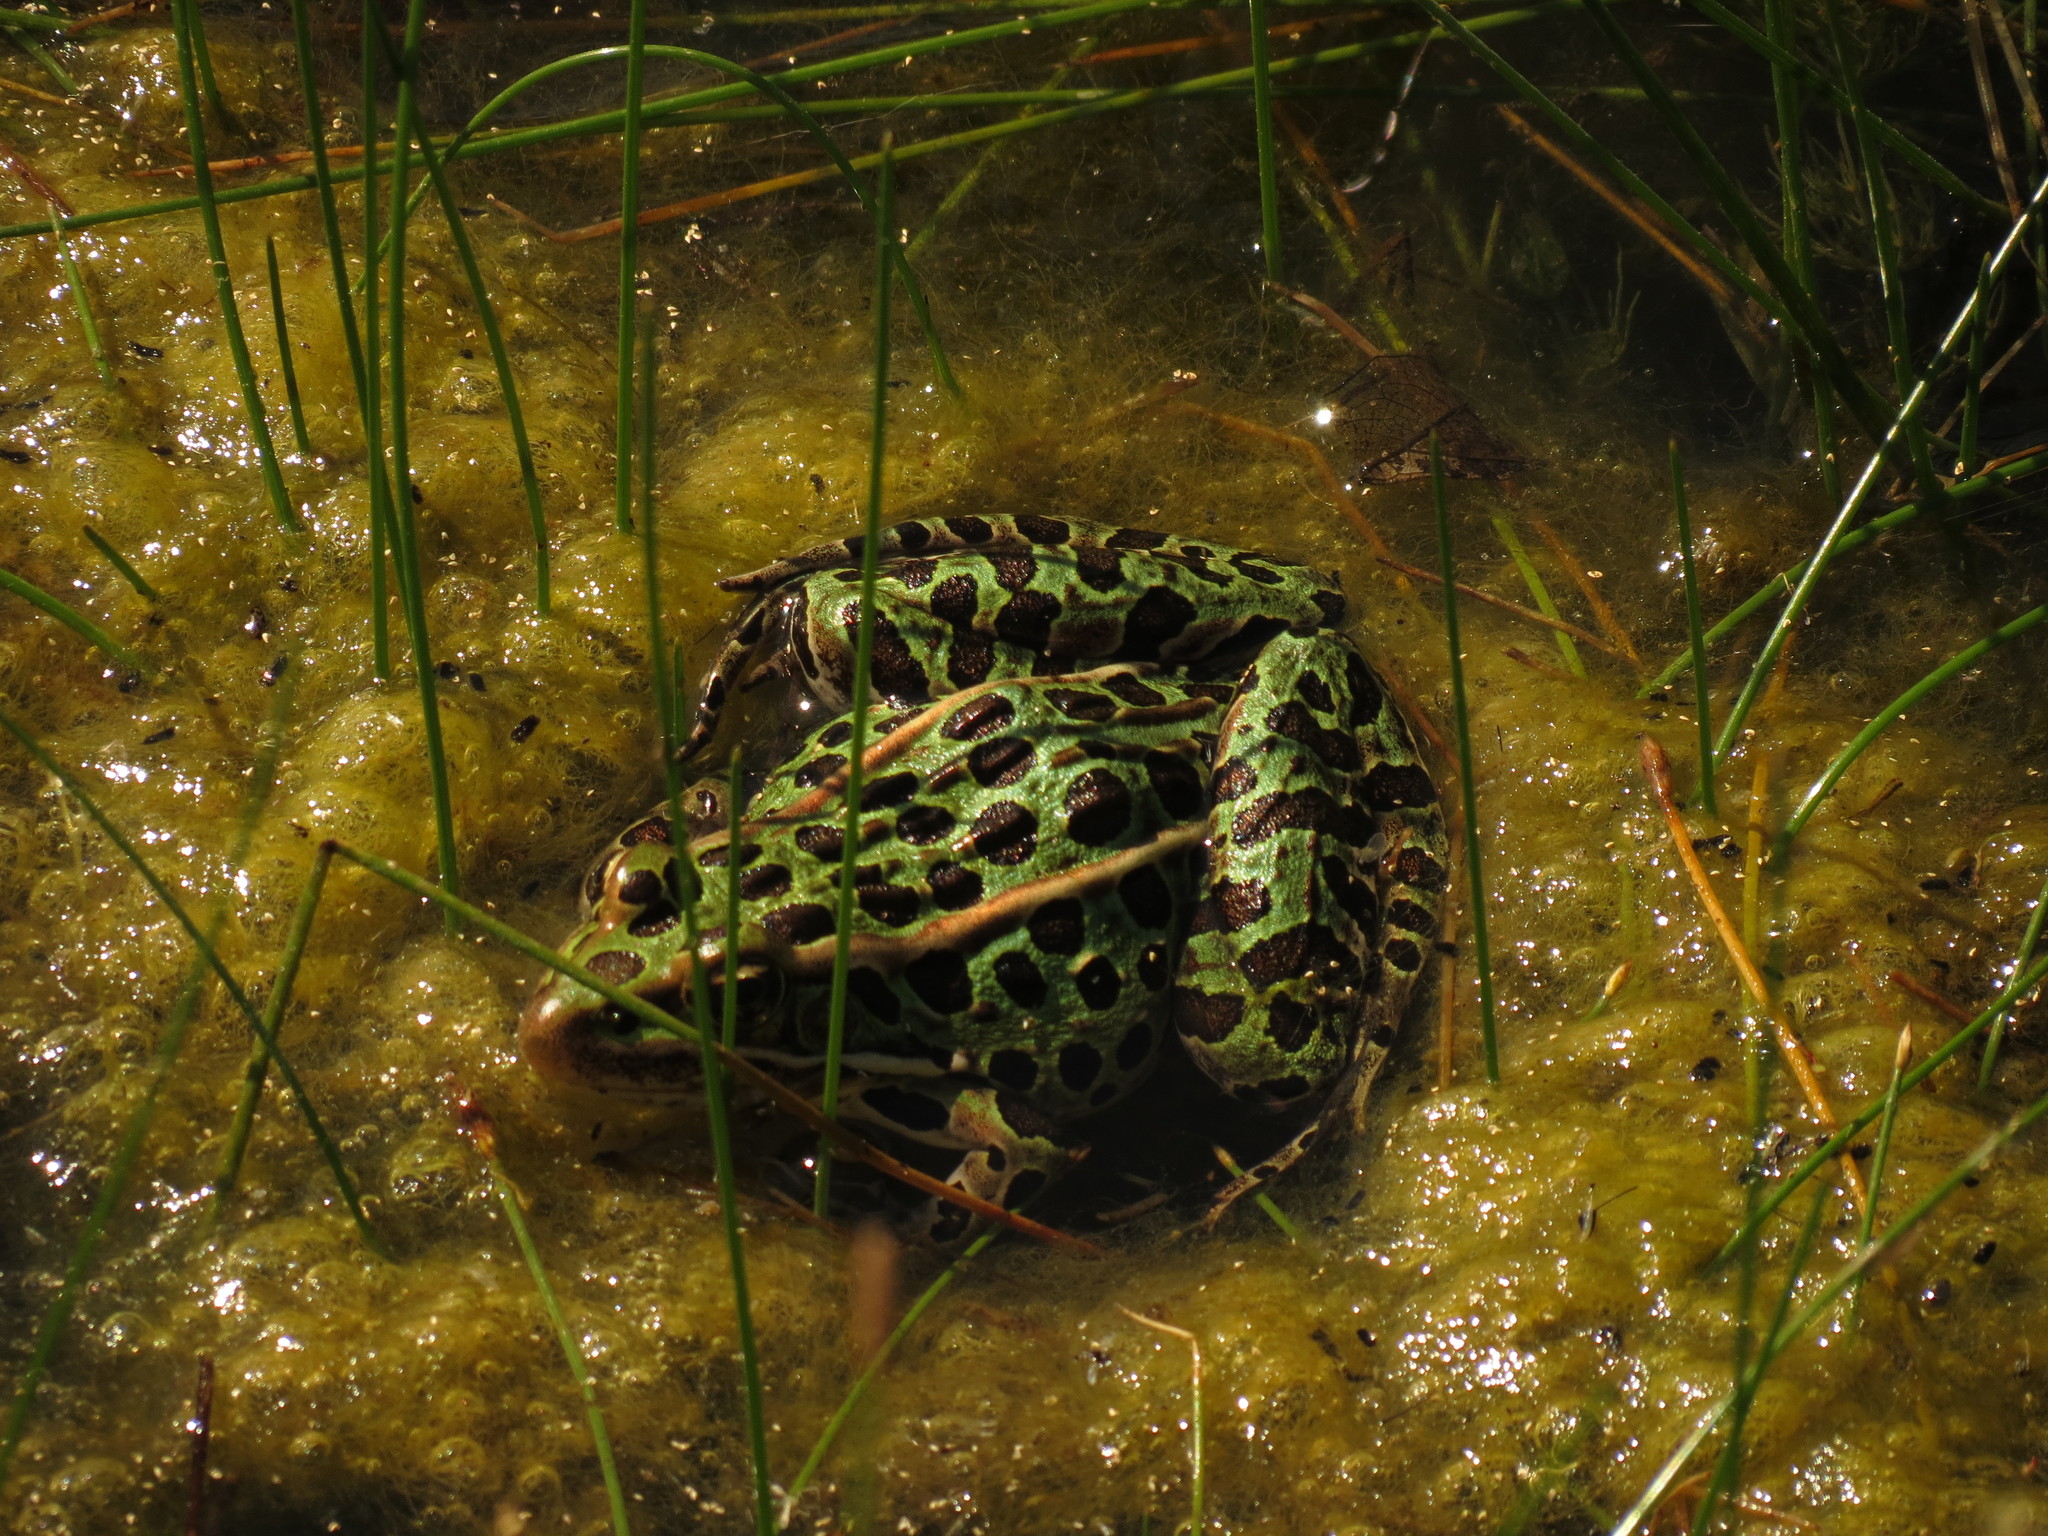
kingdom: Animalia
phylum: Chordata
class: Amphibia
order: Anura
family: Ranidae
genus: Lithobates
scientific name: Lithobates pipiens
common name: Northern leopard frog
